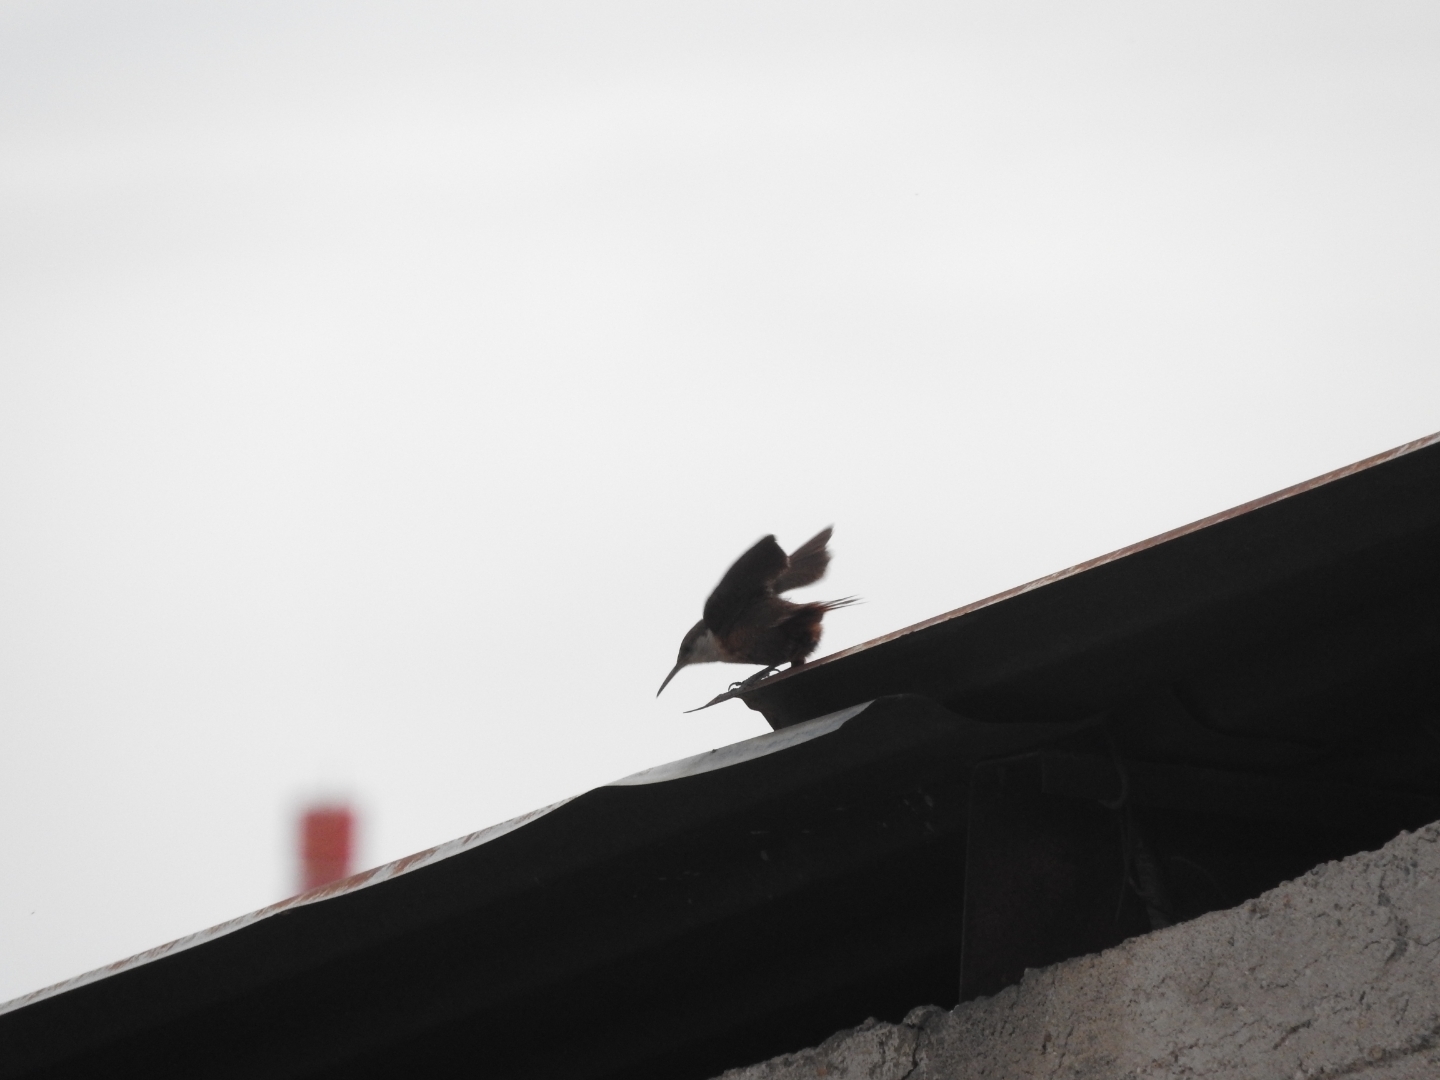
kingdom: Animalia
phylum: Chordata
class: Aves
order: Passeriformes
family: Troglodytidae
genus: Catherpes
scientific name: Catherpes mexicanus
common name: Canyon wren
